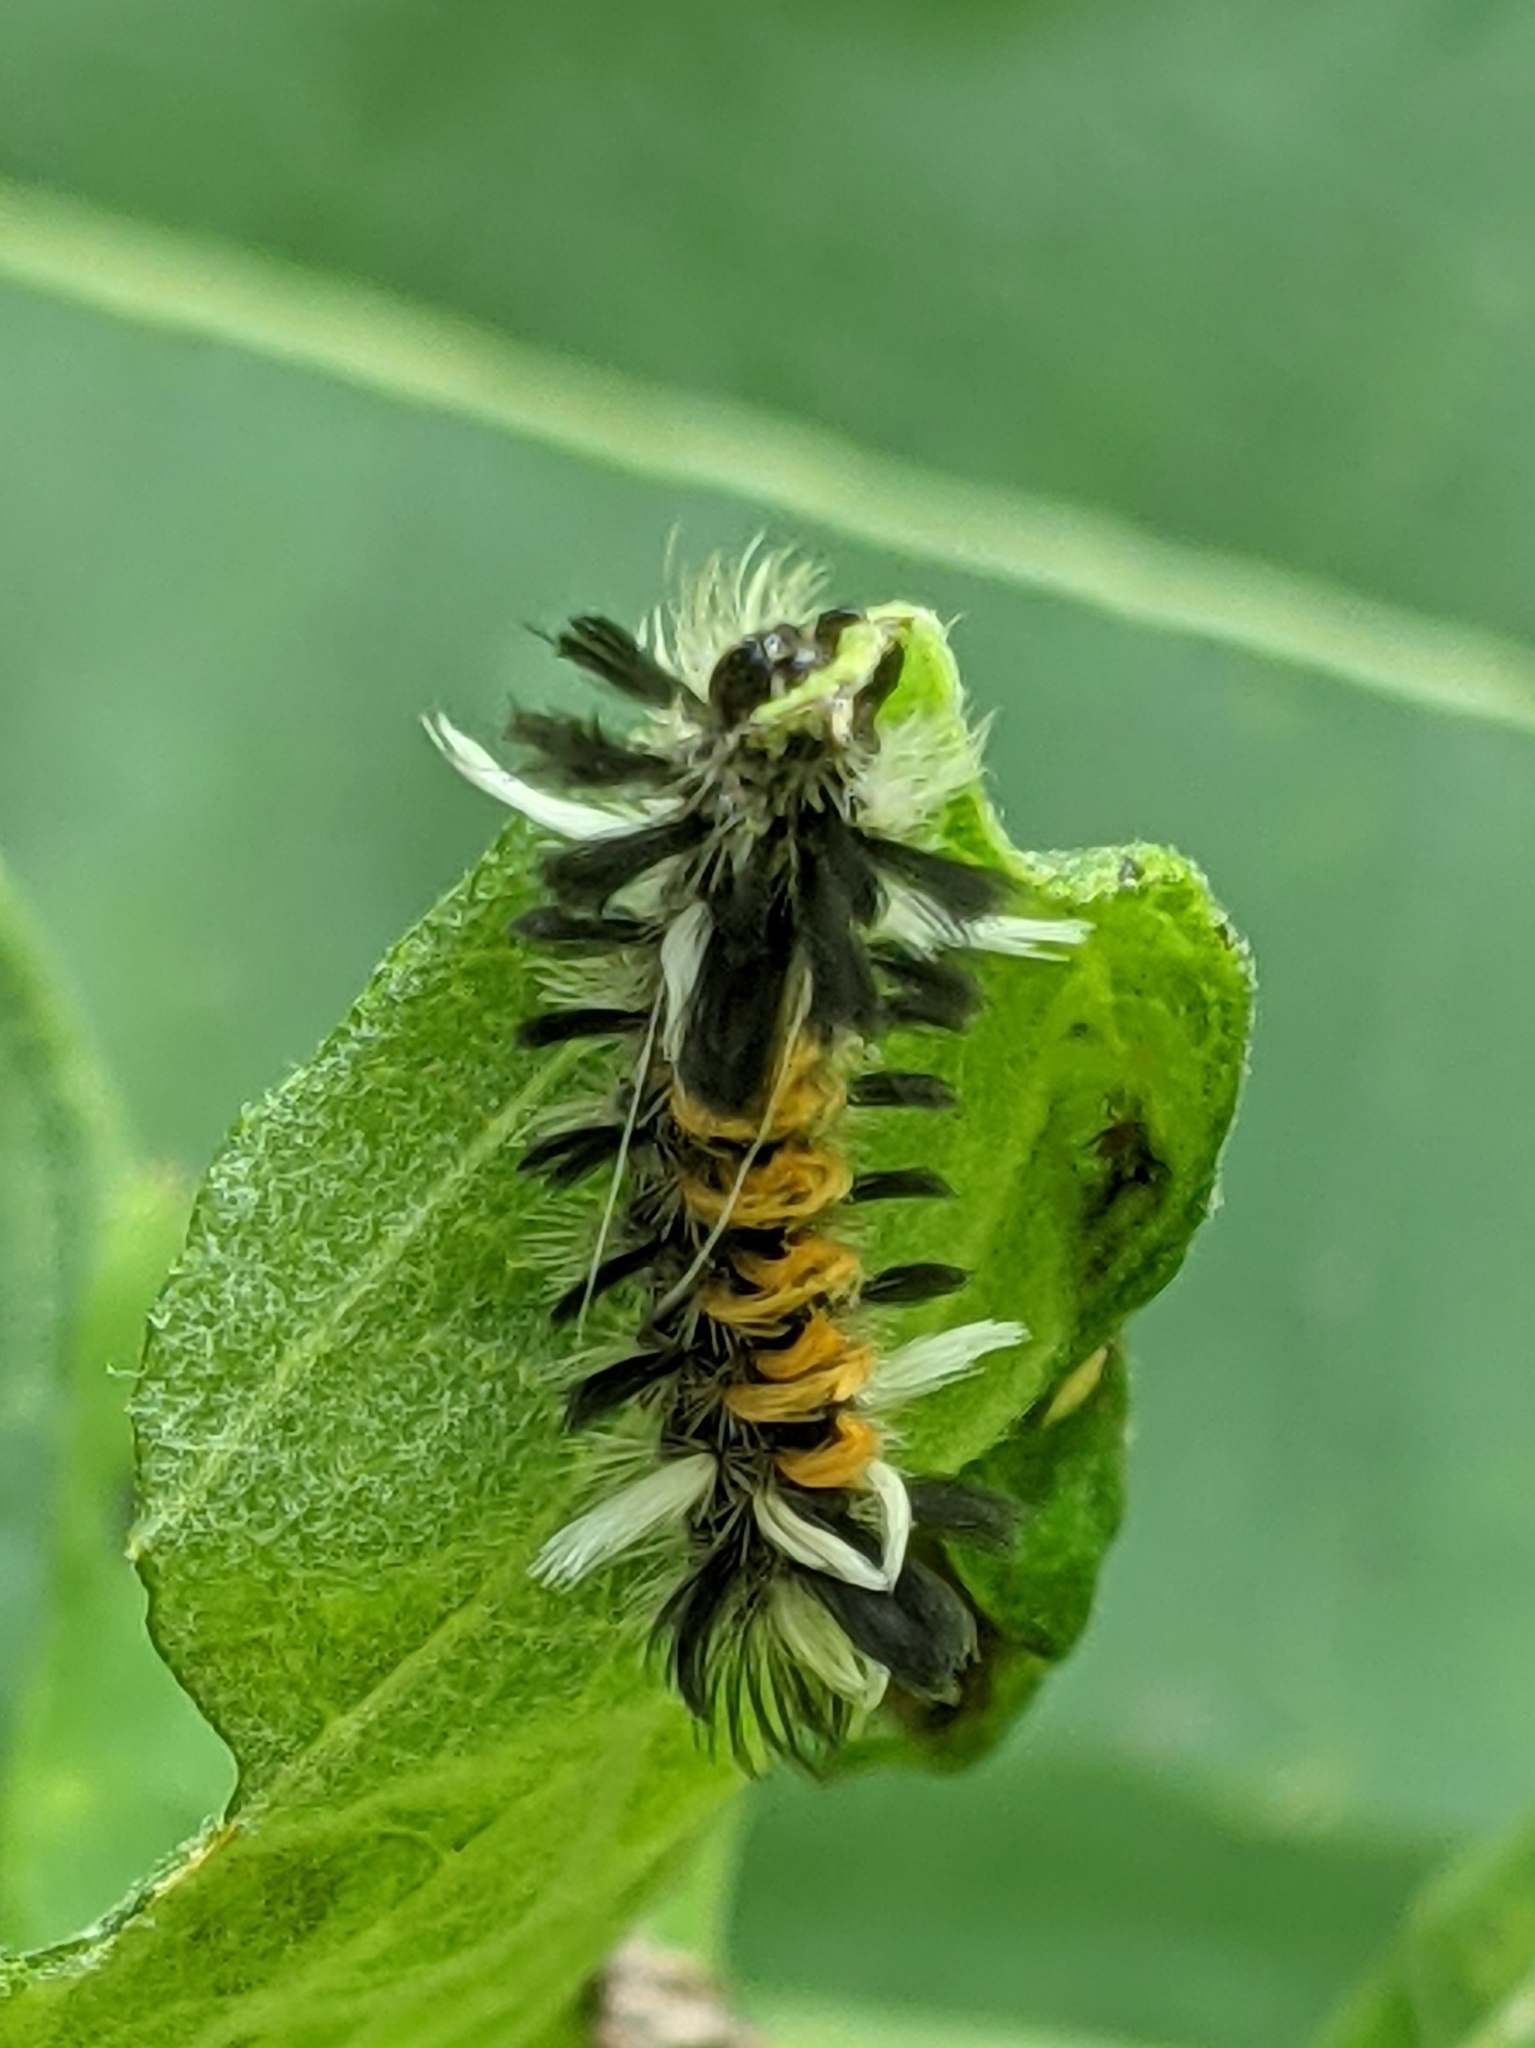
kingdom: Animalia
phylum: Arthropoda
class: Insecta
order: Lepidoptera
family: Erebidae
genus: Euchaetes
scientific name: Euchaetes egle
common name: Milkweed tussock moth
